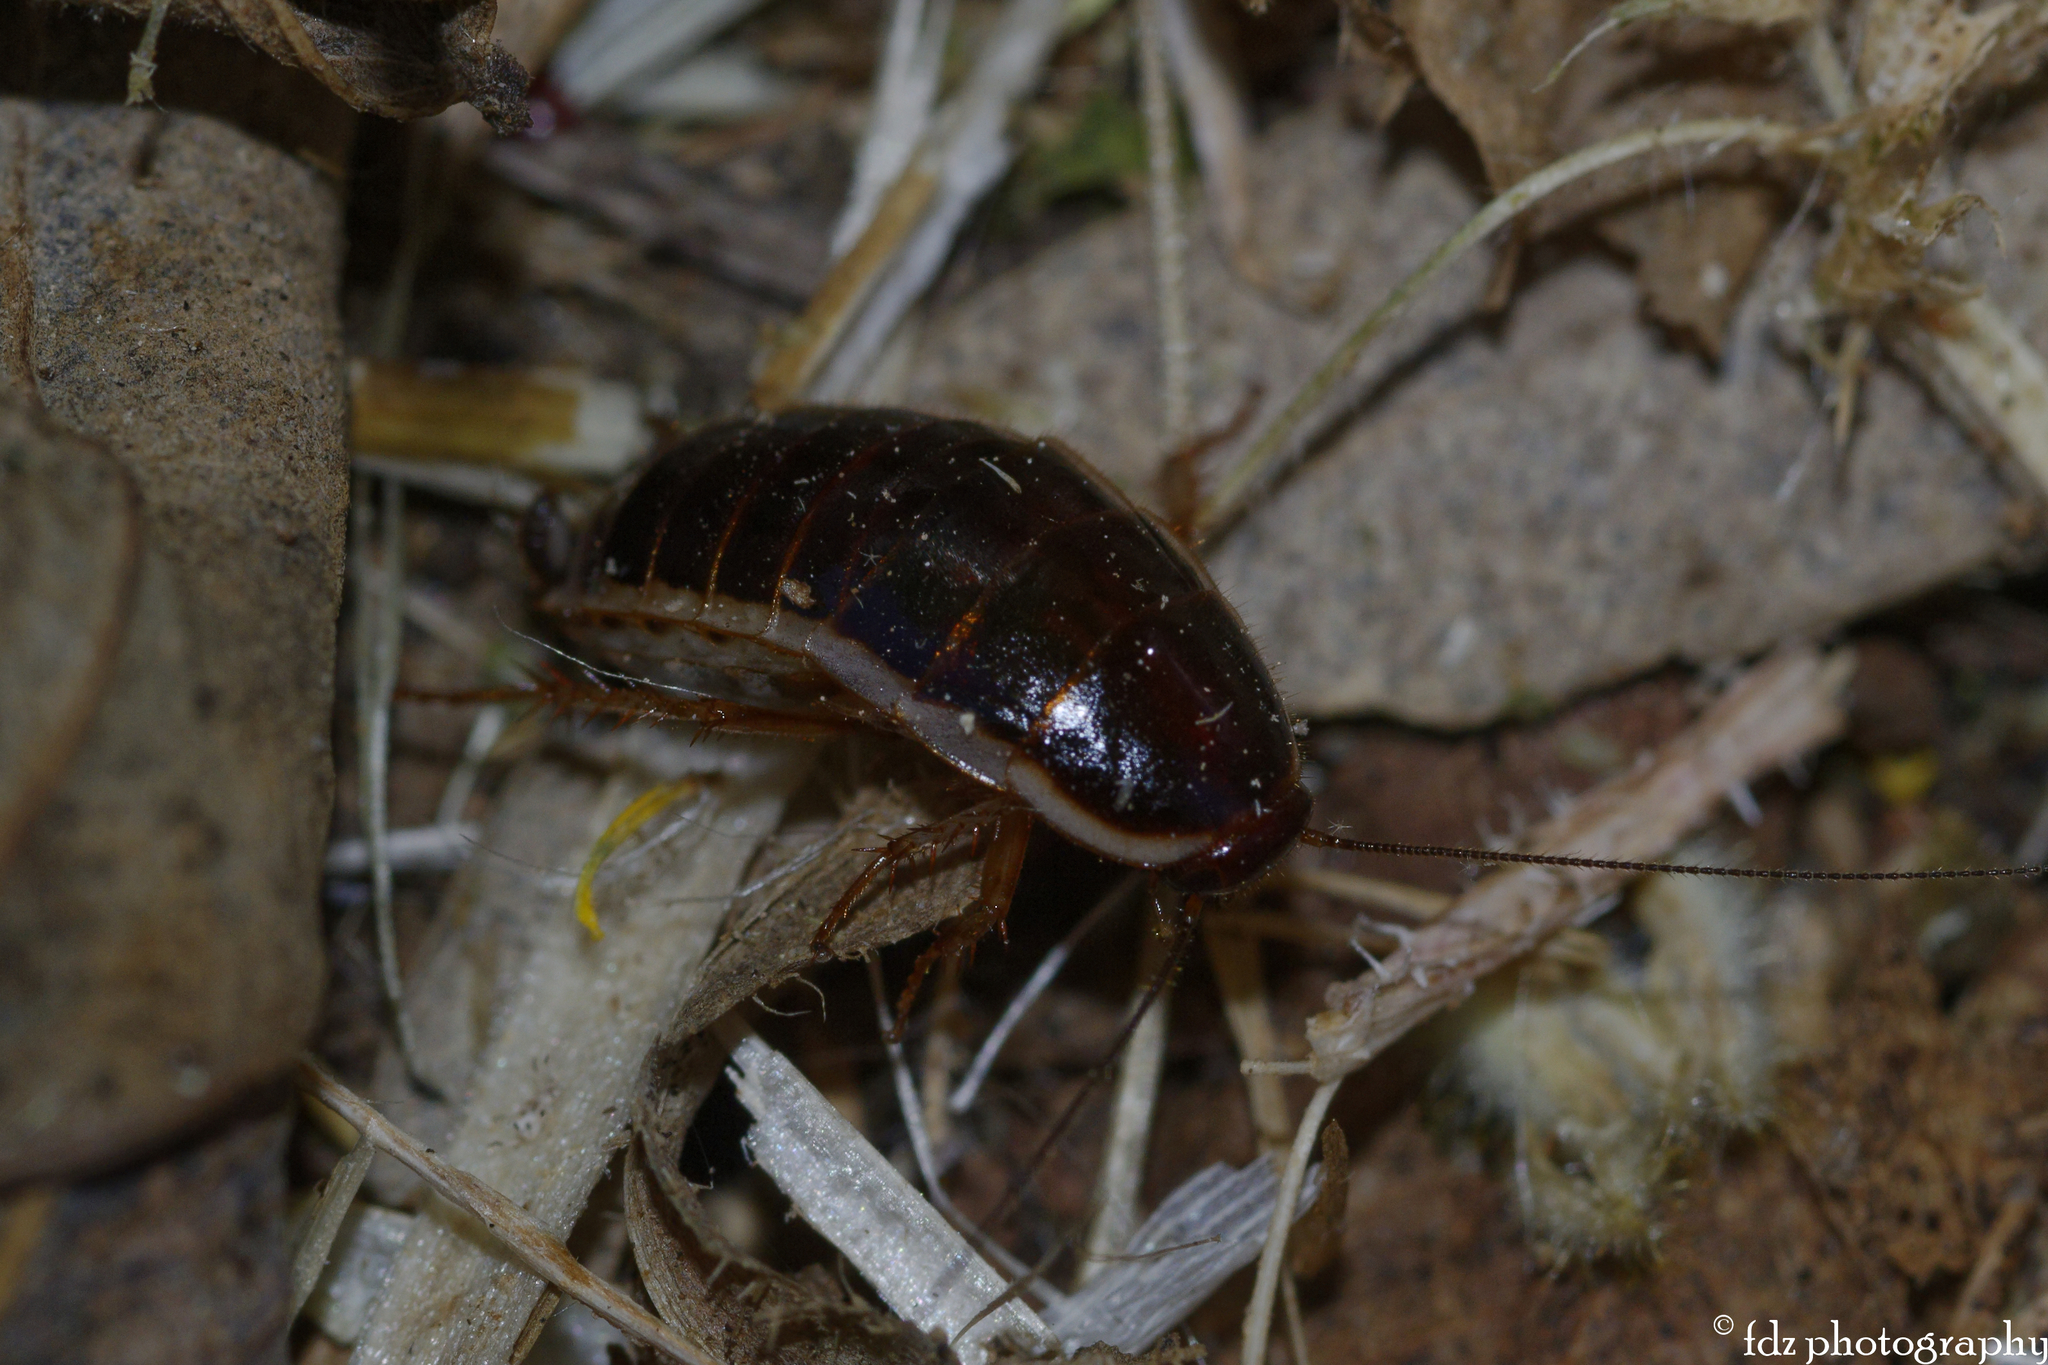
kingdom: Animalia
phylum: Arthropoda
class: Insecta
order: Blattodea
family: Ectobiidae
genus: Loboptera
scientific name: Loboptera decipiens
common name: Lobe-winged cockroach
